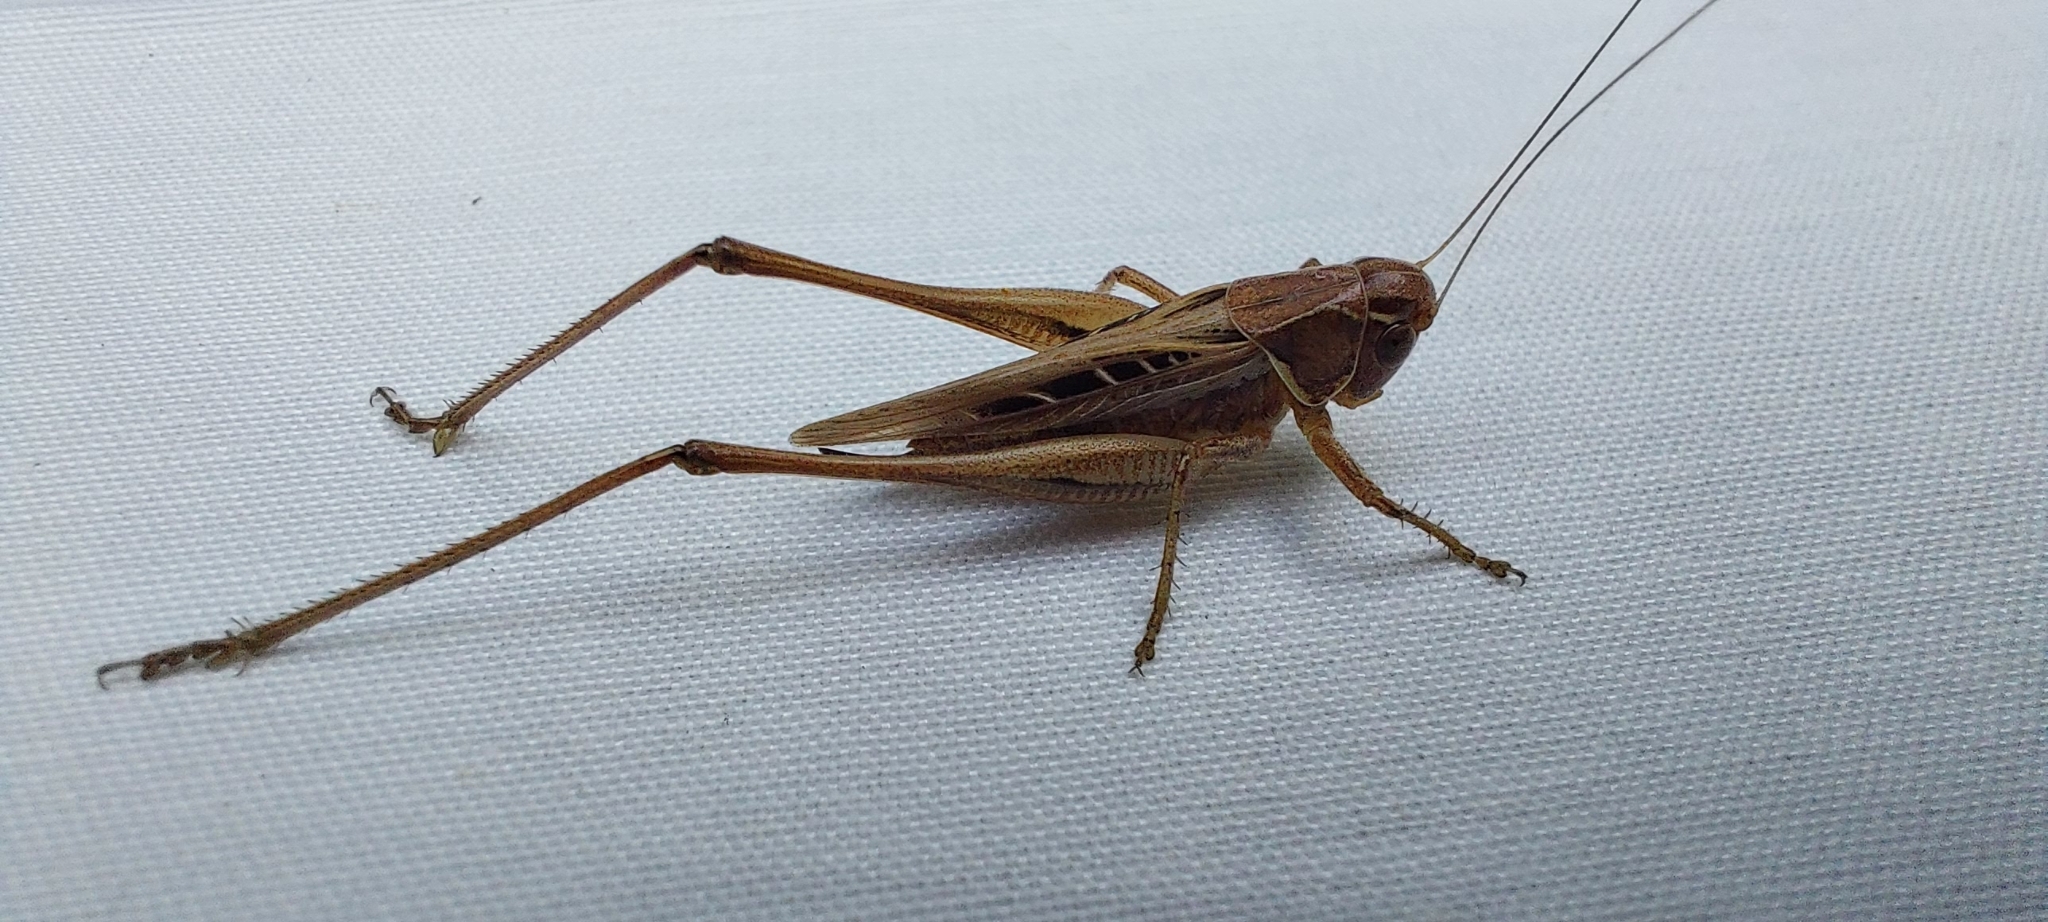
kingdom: Animalia
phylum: Arthropoda
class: Insecta
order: Orthoptera
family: Tettigoniidae
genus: Tessellana
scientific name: Tessellana tessellata
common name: Grasshopper
